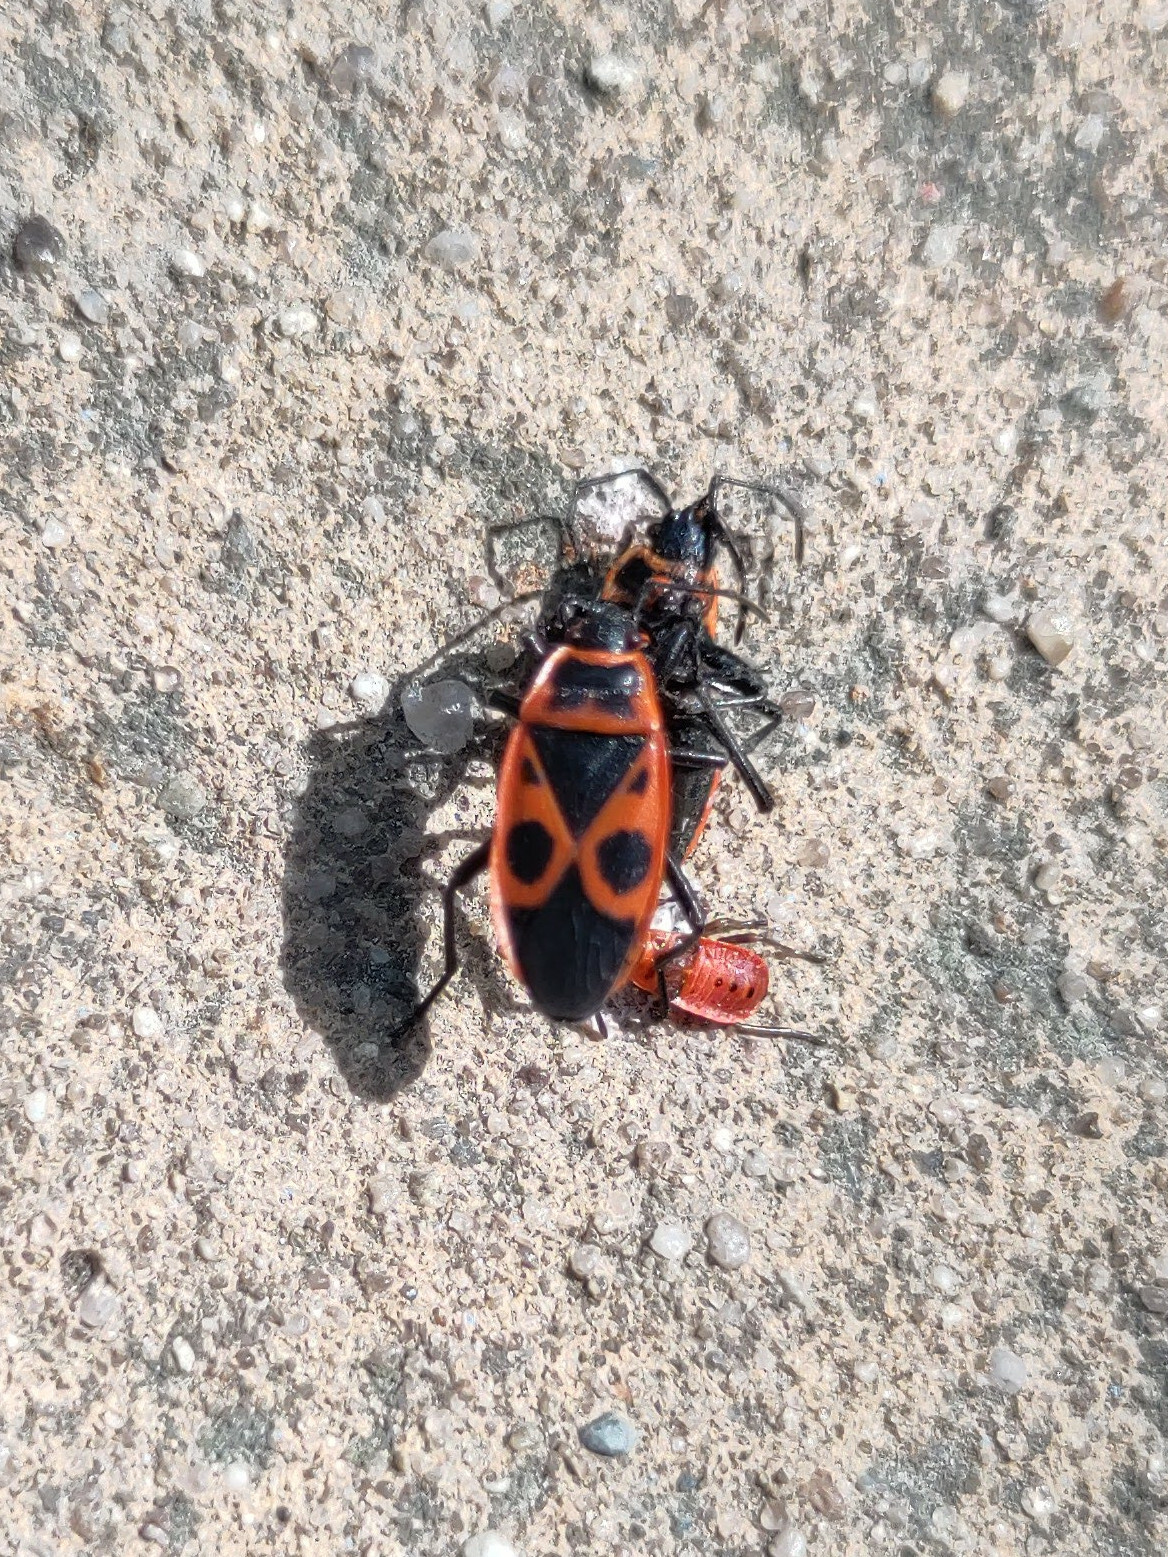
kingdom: Animalia
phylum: Arthropoda
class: Insecta
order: Hemiptera
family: Pyrrhocoridae
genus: Pyrrhocoris
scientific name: Pyrrhocoris apterus
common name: Firebug
